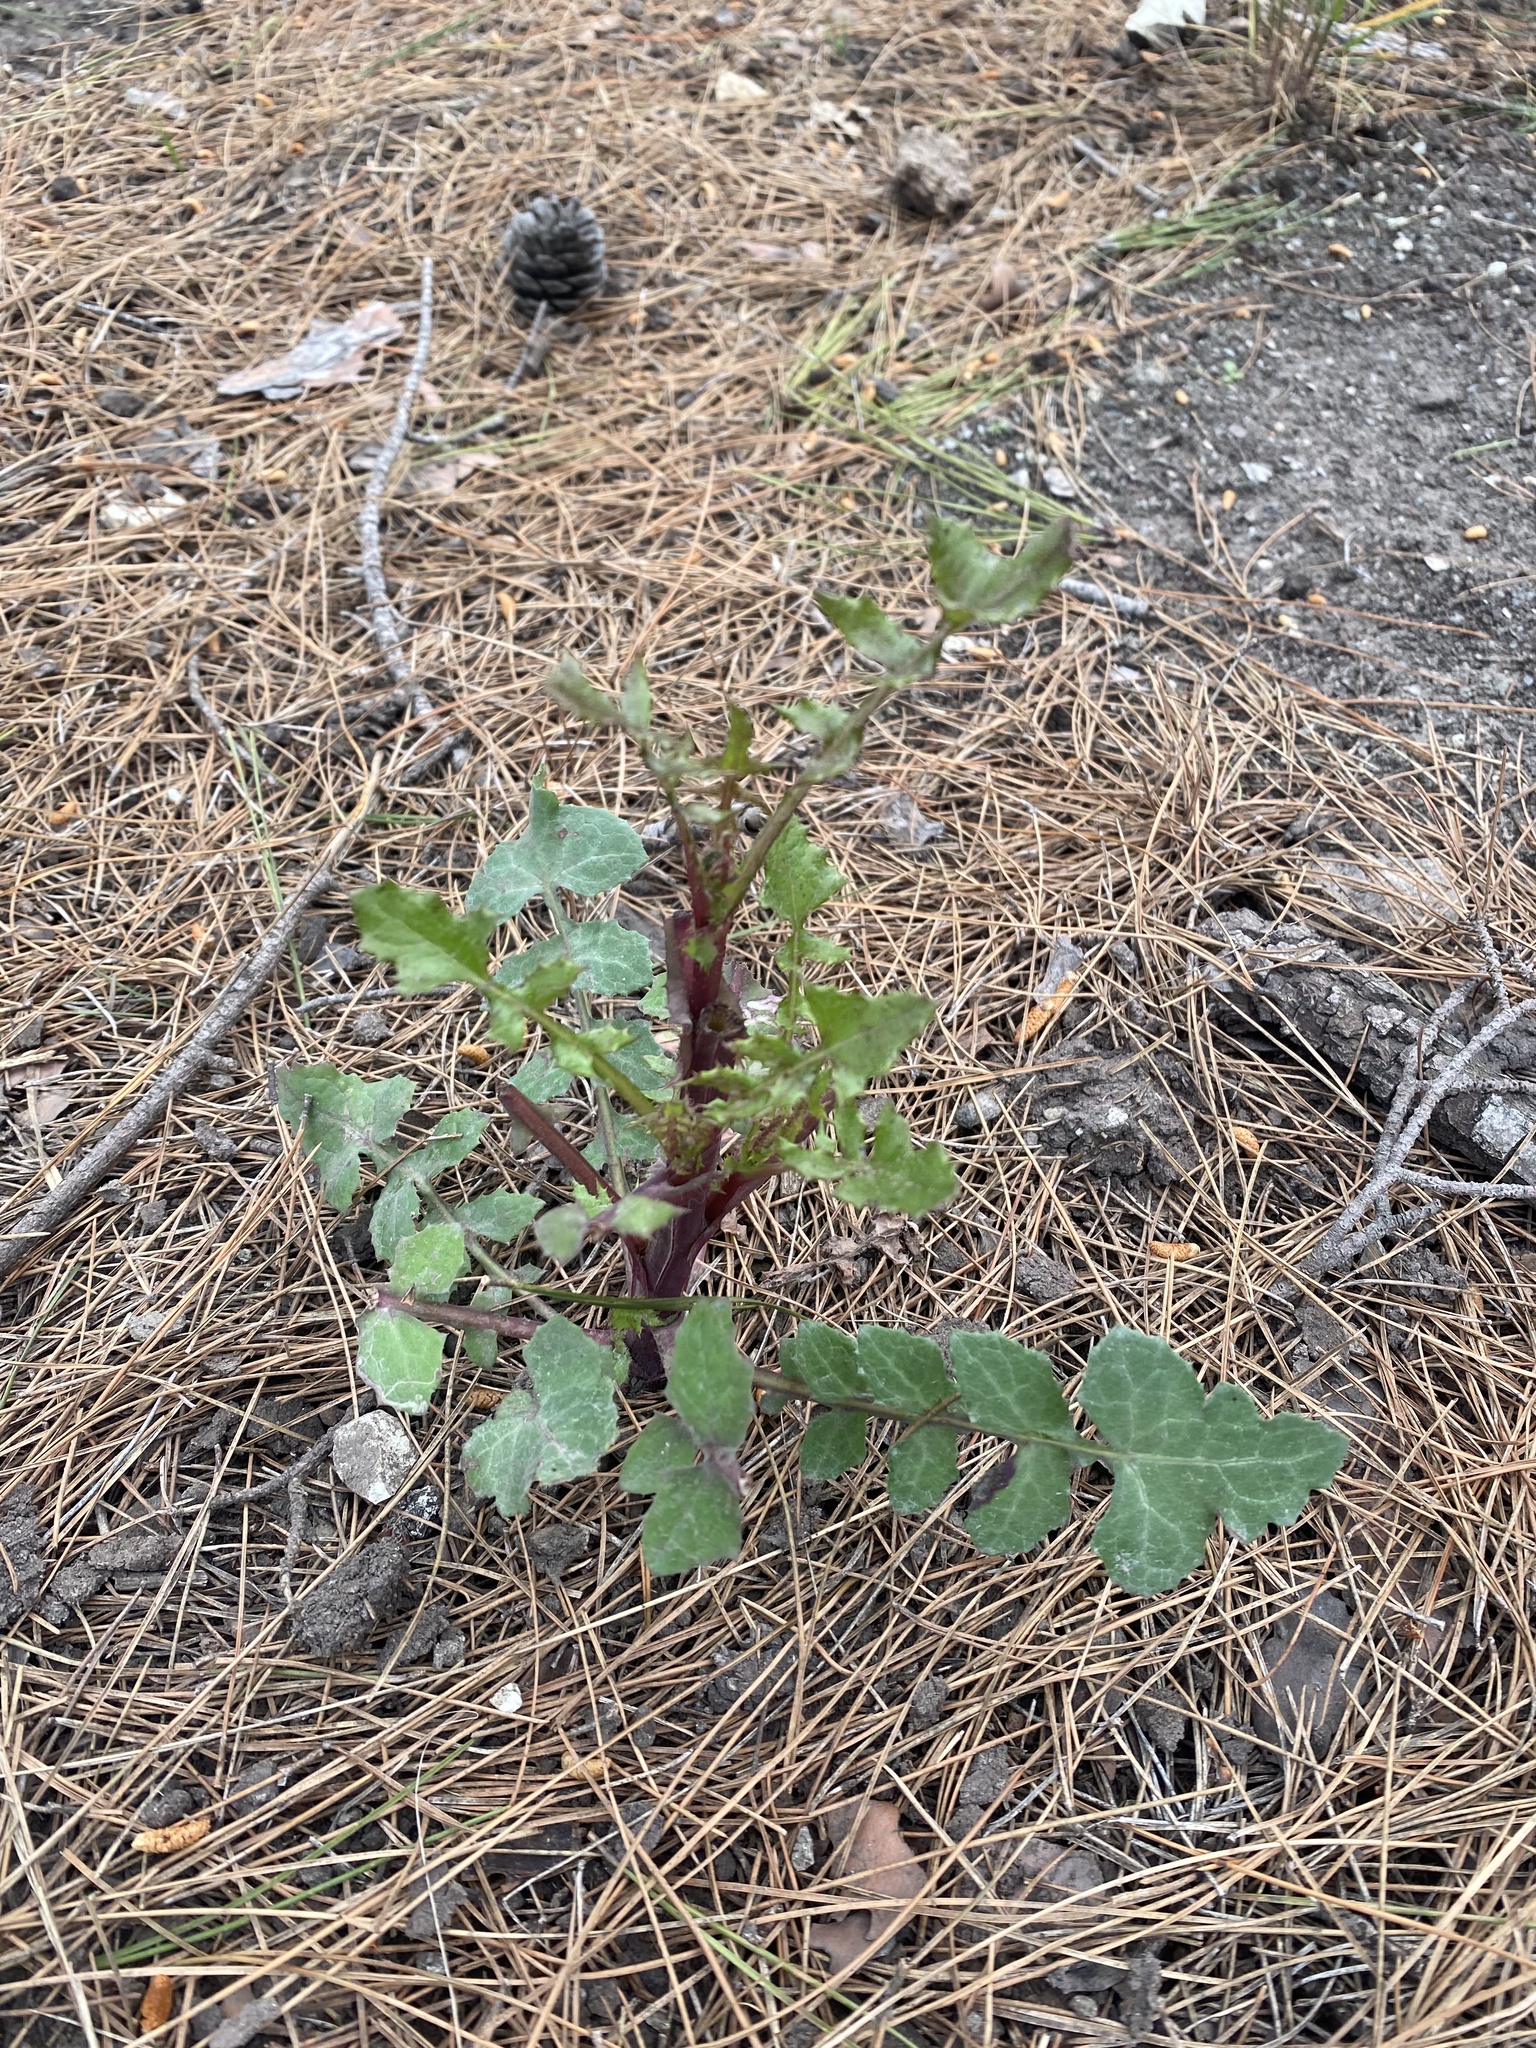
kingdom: Plantae
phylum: Tracheophyta
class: Magnoliopsida
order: Asterales
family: Asteraceae
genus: Sonchus
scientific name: Sonchus oleraceus
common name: Common sowthistle
